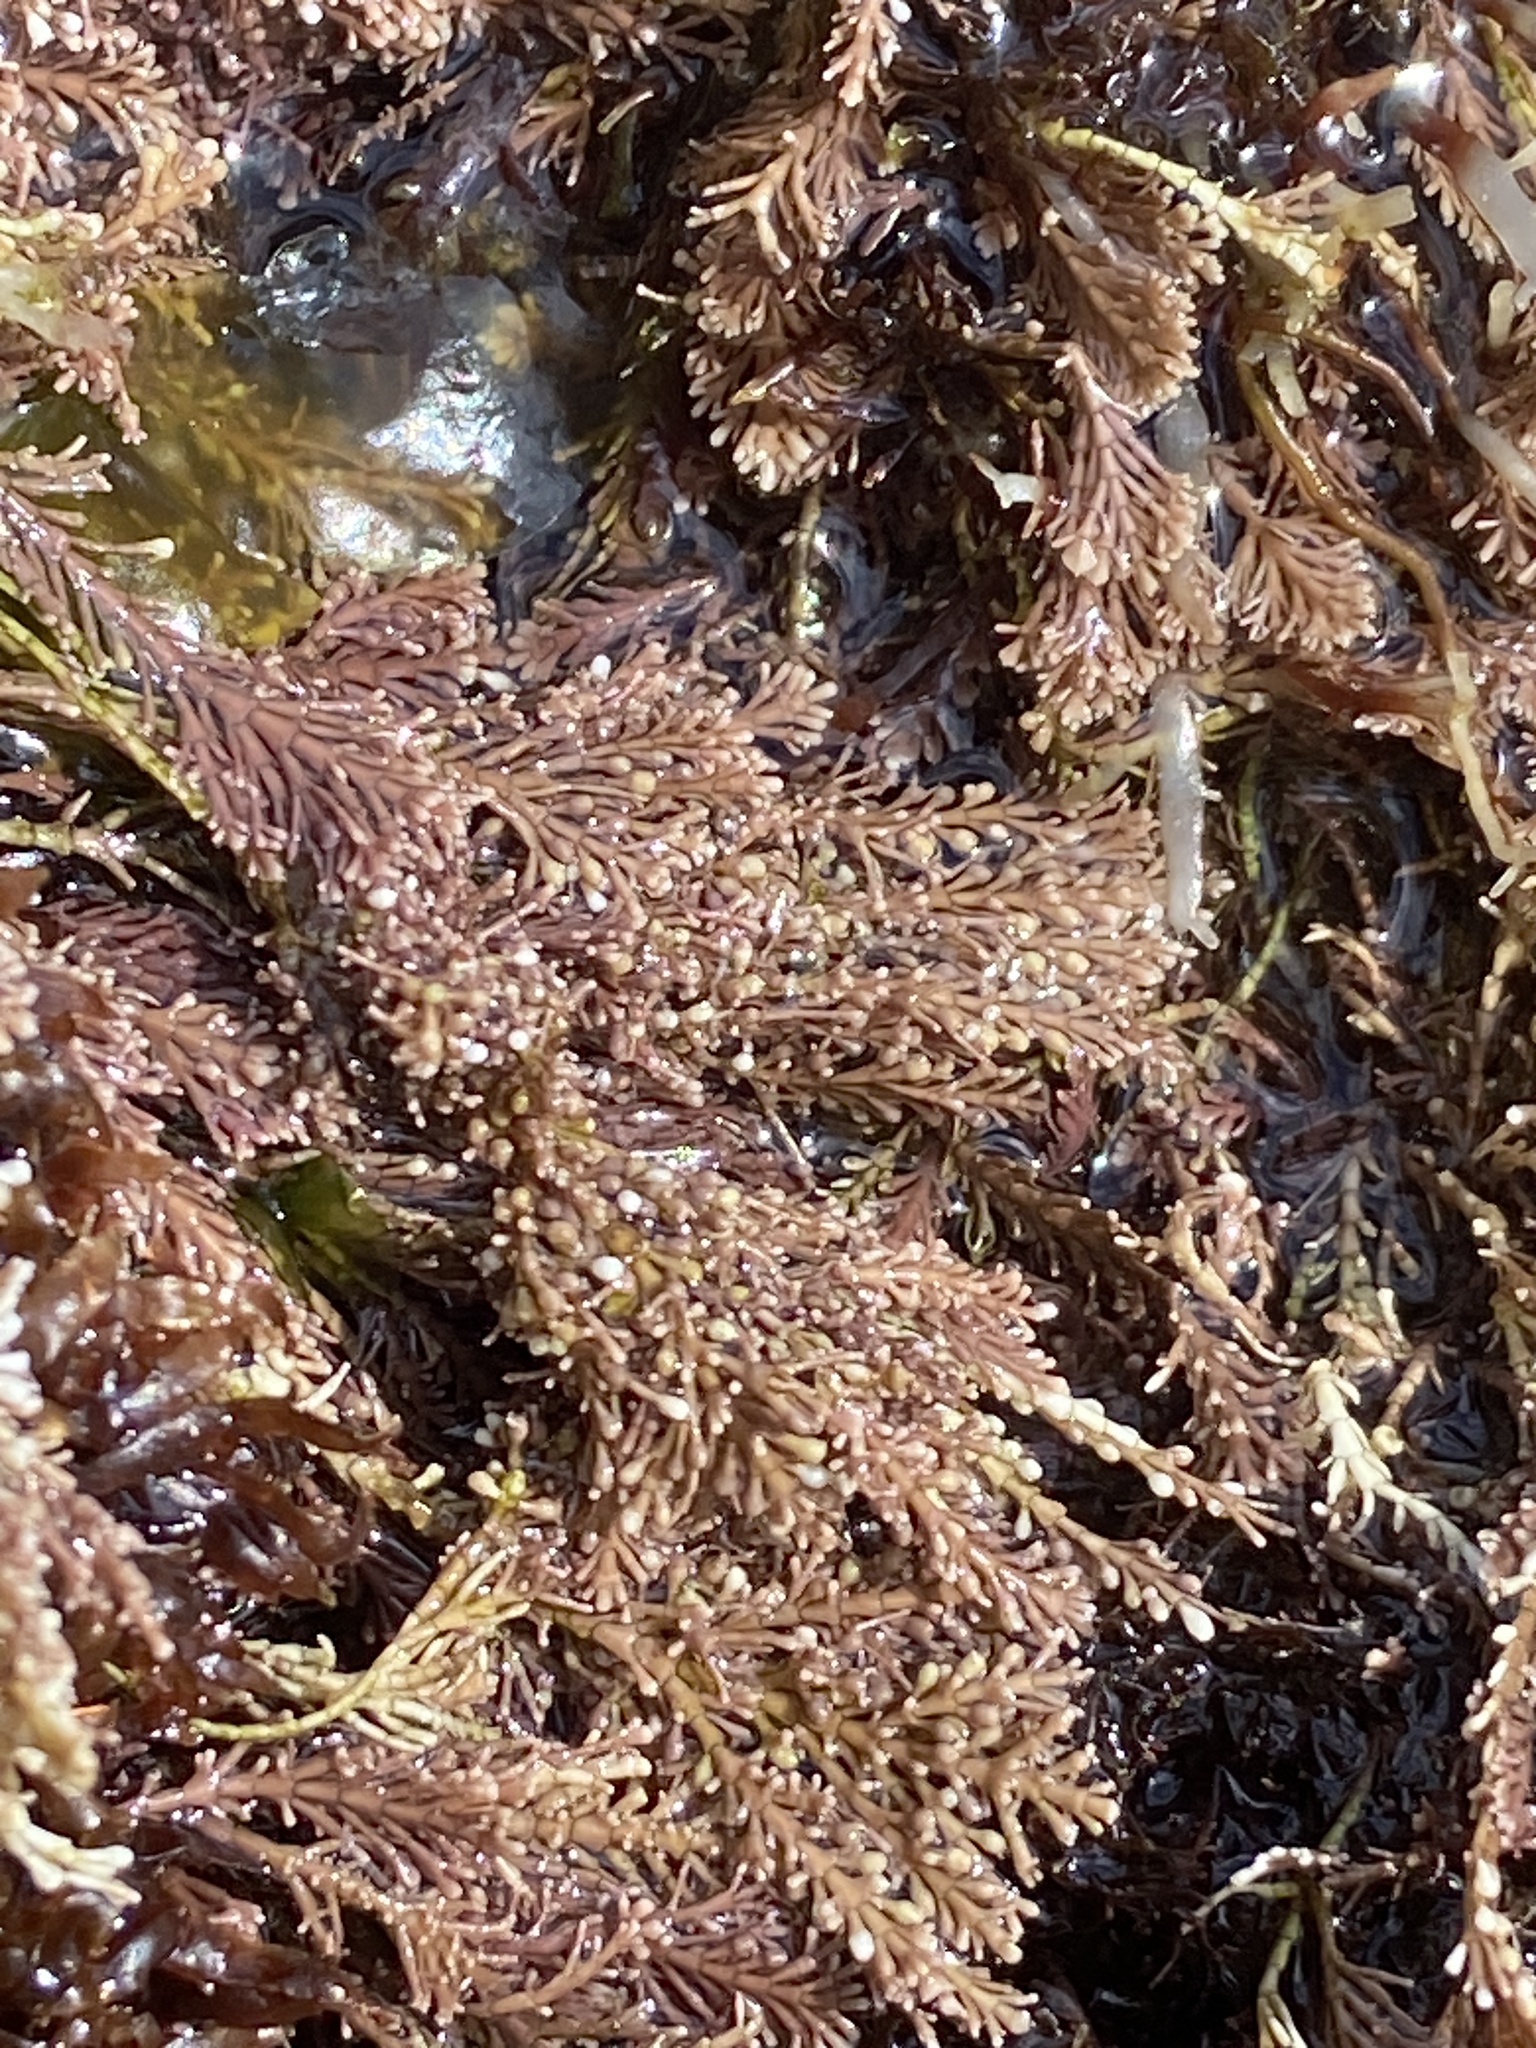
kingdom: Plantae
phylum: Rhodophyta
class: Florideophyceae
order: Corallinales
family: Corallinaceae
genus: Corallina
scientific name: Corallina officinalis
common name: Coral weed
